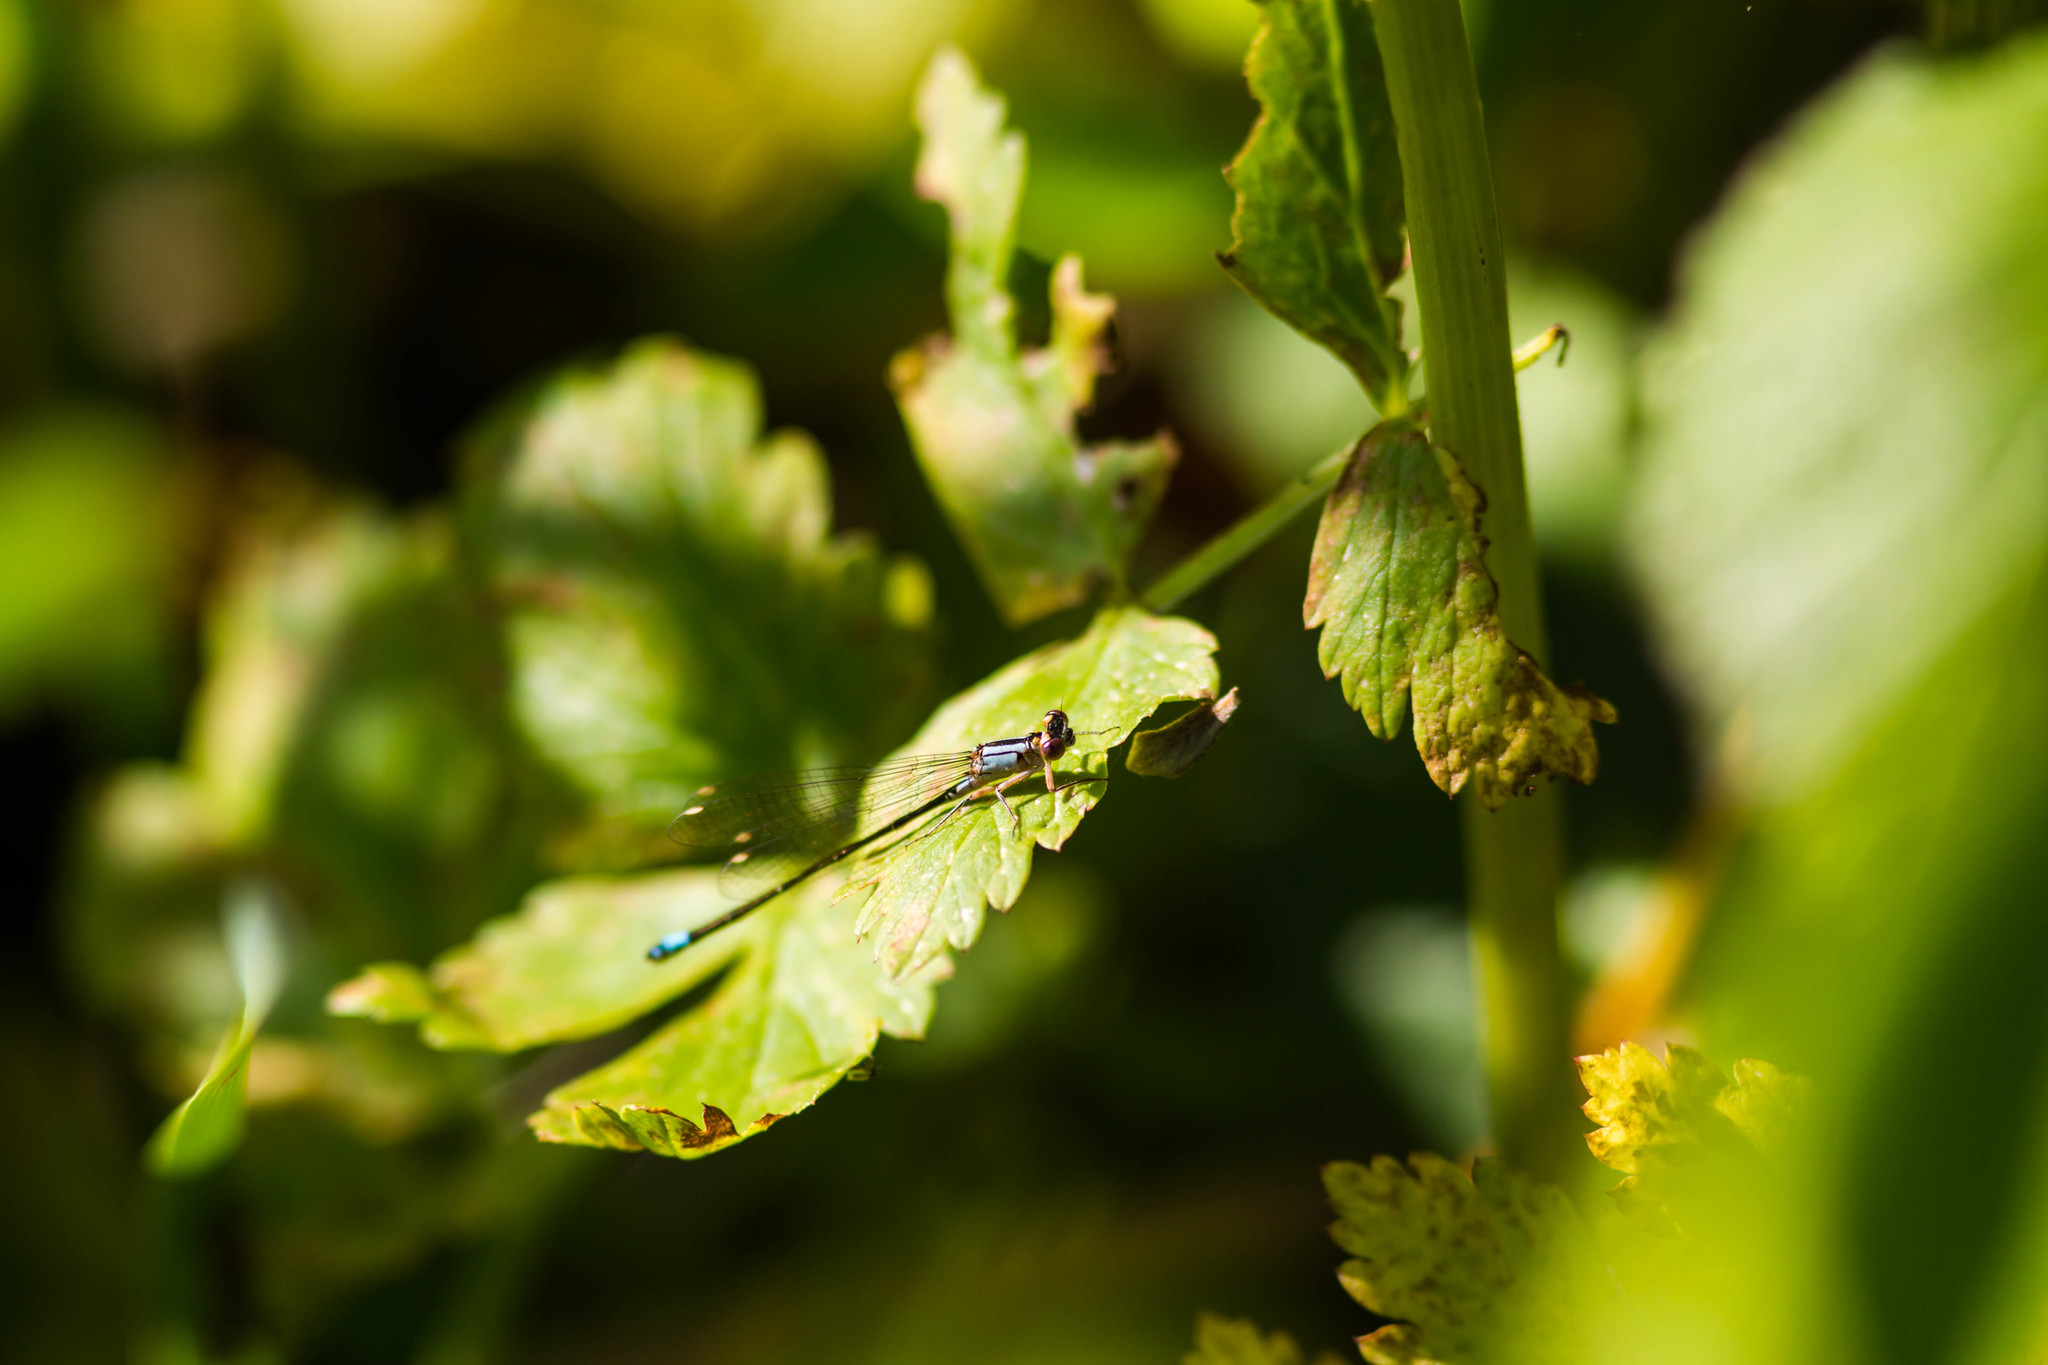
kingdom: Animalia
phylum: Arthropoda
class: Insecta
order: Odonata
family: Coenagrionidae
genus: Ischnura
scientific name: Ischnura cervula
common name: Pacific forktail
